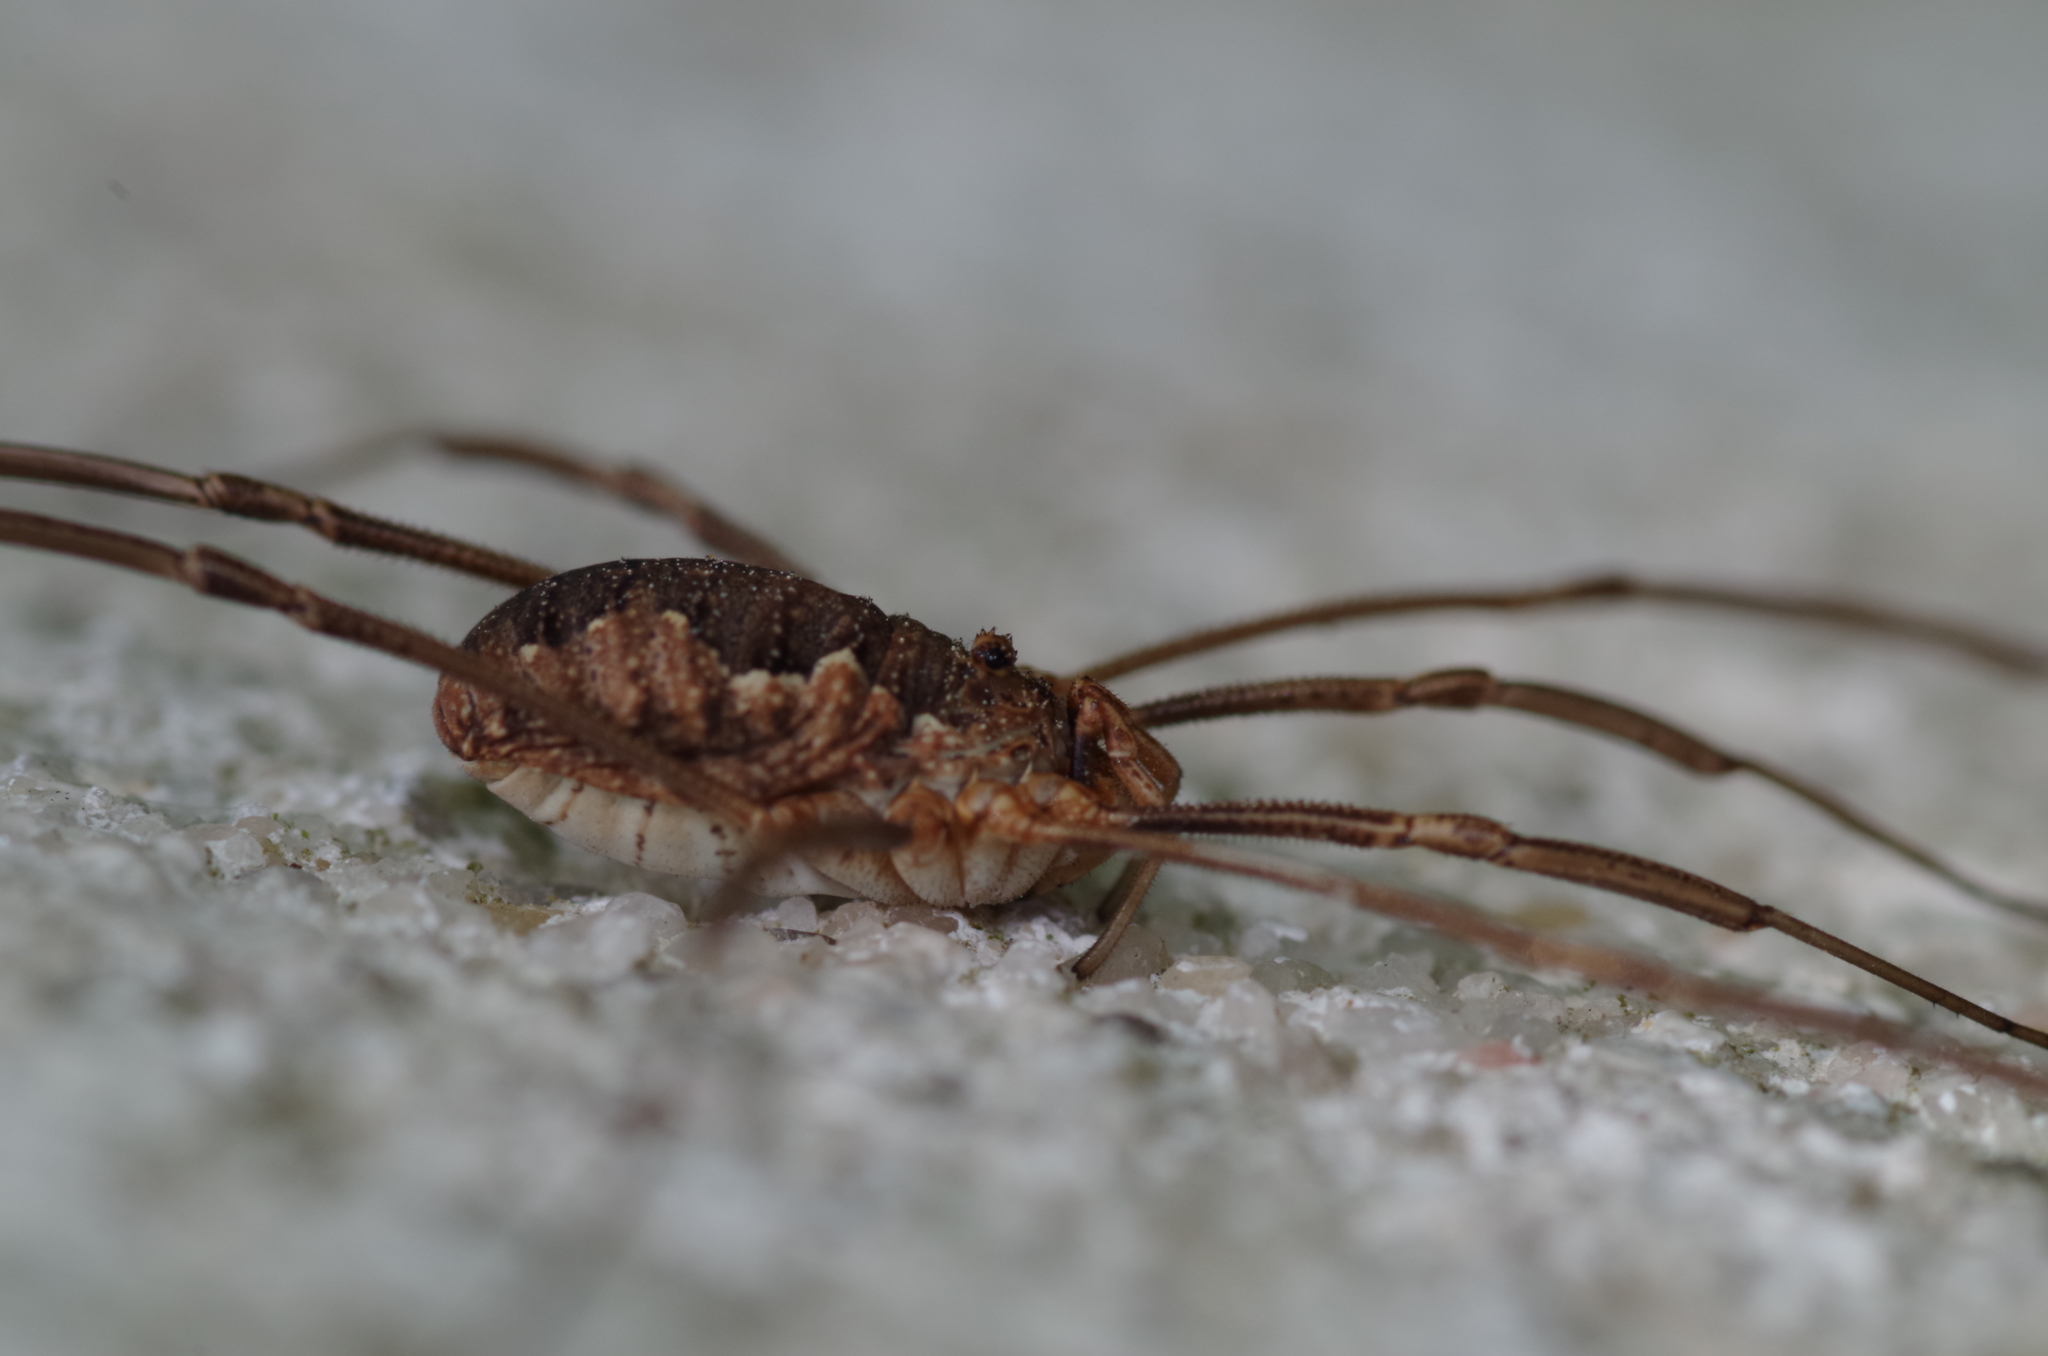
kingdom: Animalia
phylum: Arthropoda
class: Arachnida
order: Opiliones
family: Phalangiidae
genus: Phalangium
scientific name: Phalangium opilio
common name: Daddy longleg
